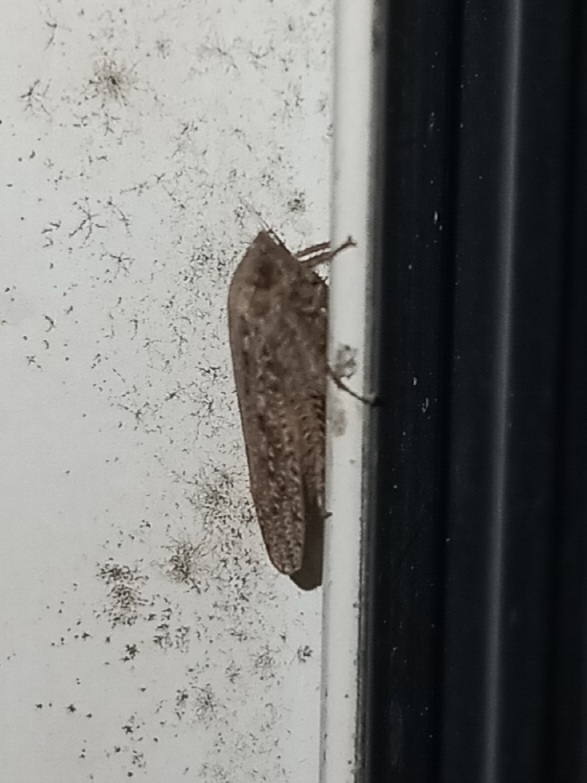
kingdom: Animalia
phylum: Arthropoda
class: Insecta
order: Hemiptera
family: Cicadellidae
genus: Curtara
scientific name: Curtara insularis
